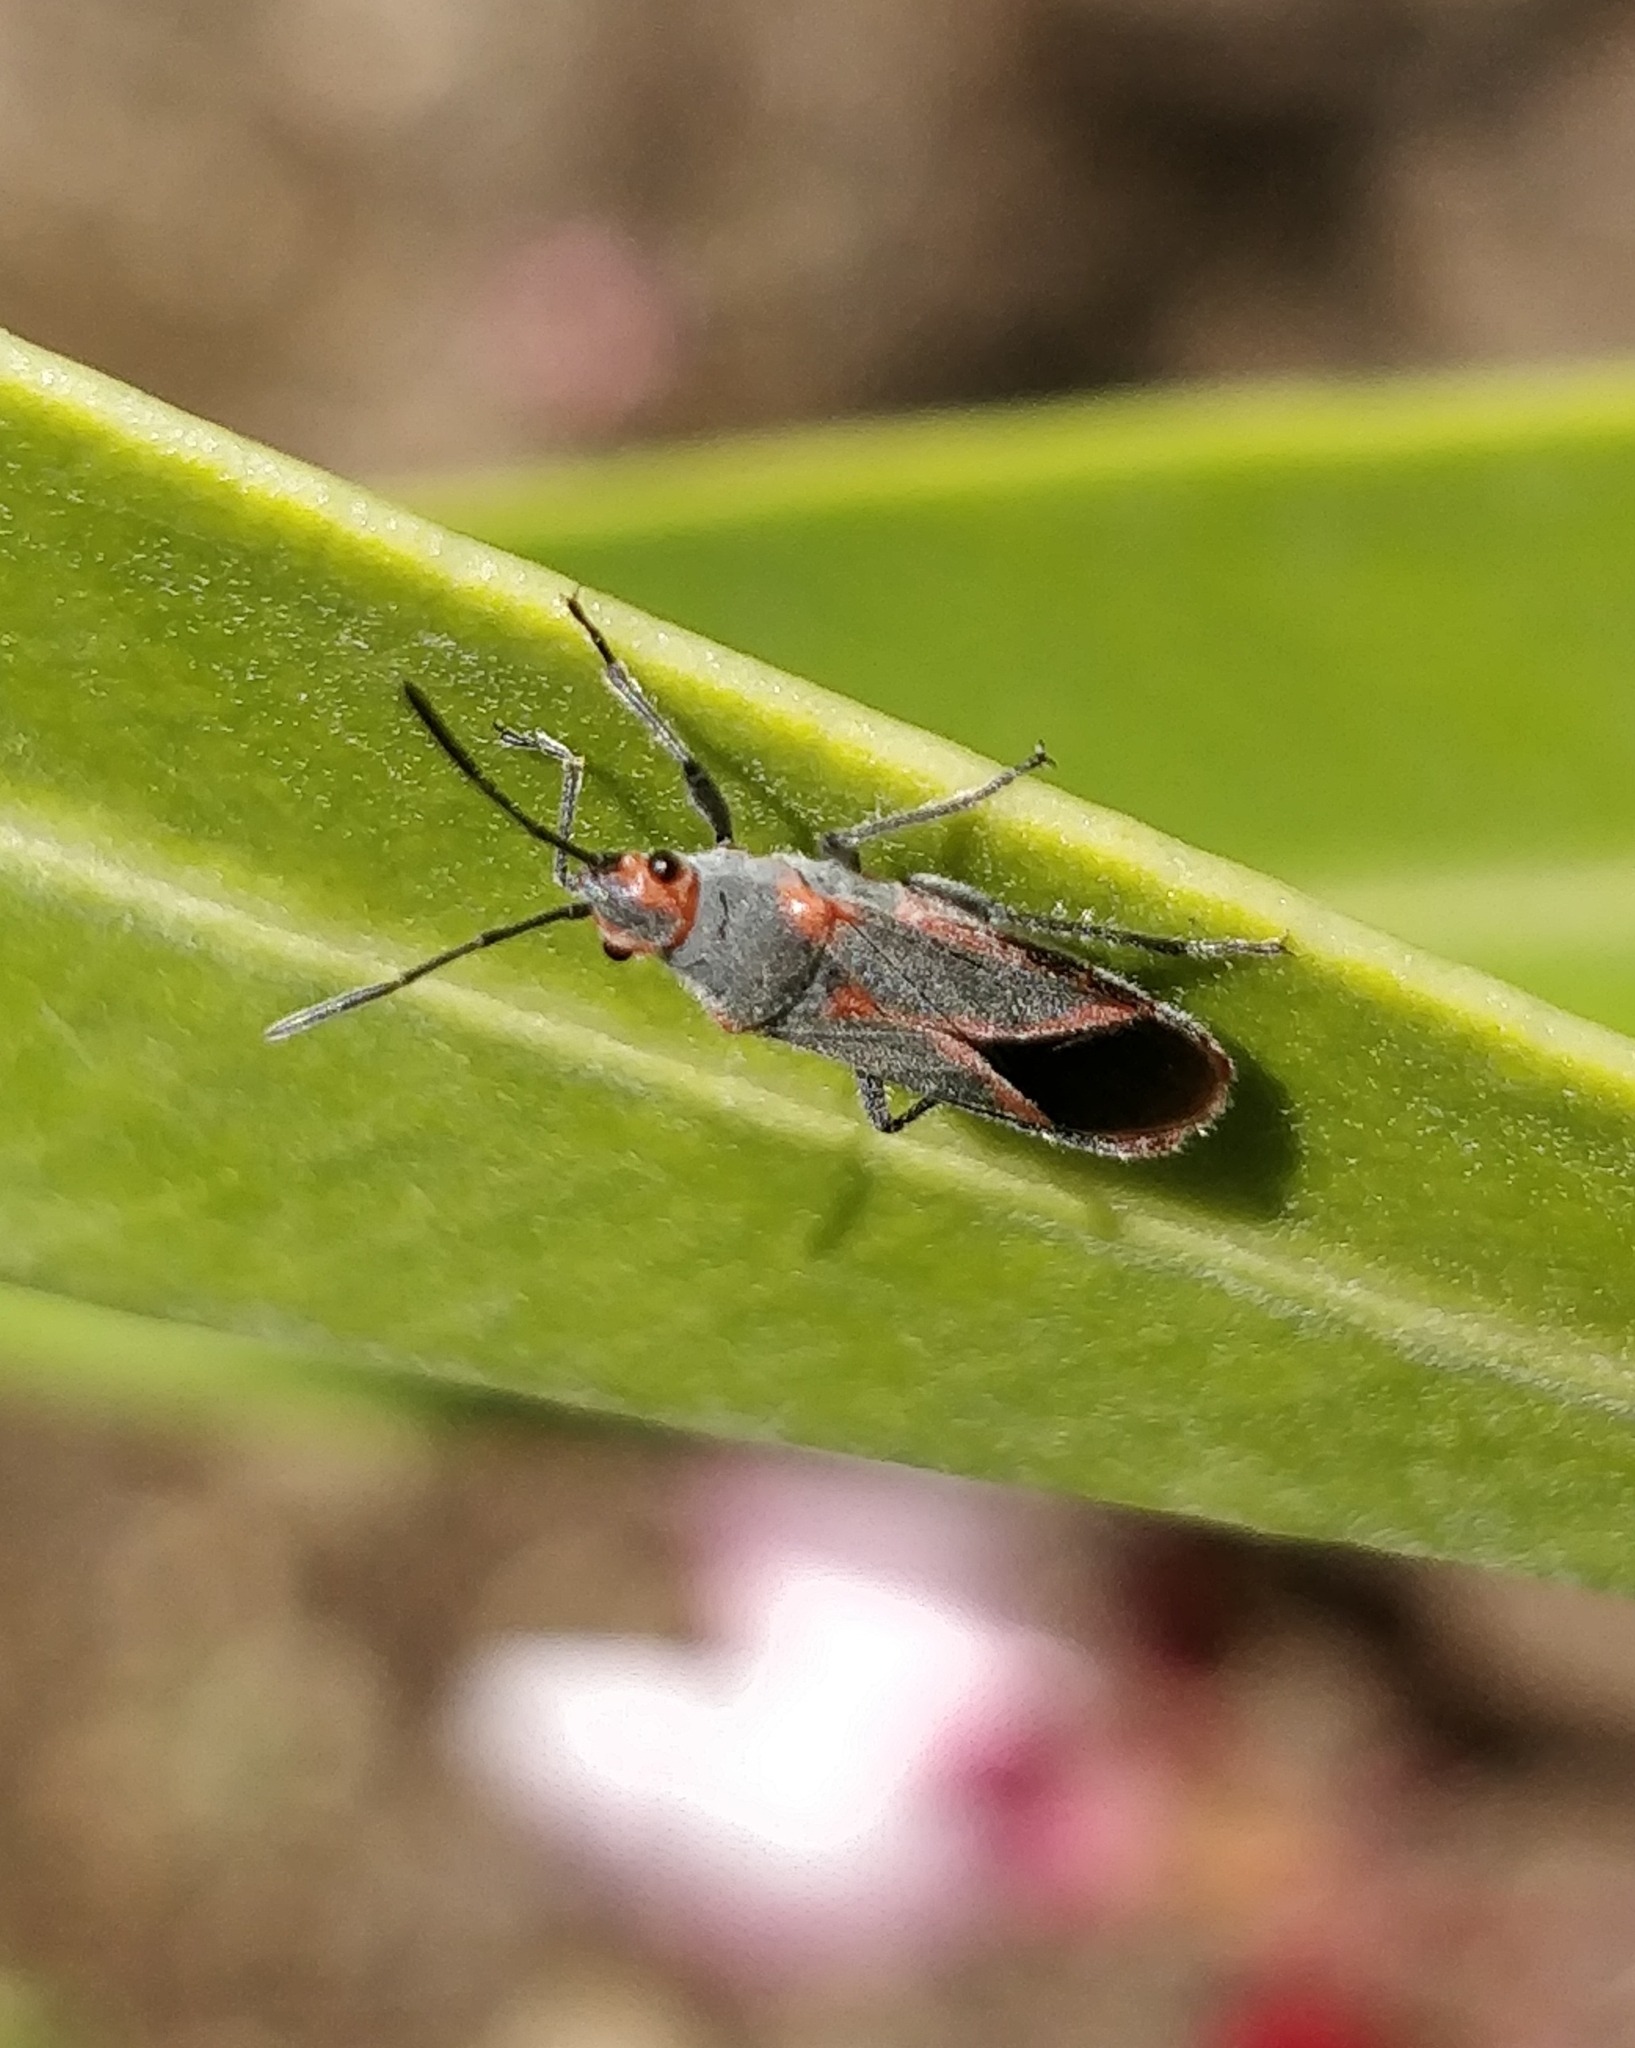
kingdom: Animalia
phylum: Arthropoda
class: Insecta
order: Hemiptera
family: Lygaeidae
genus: Caenocoris
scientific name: Caenocoris nerii
